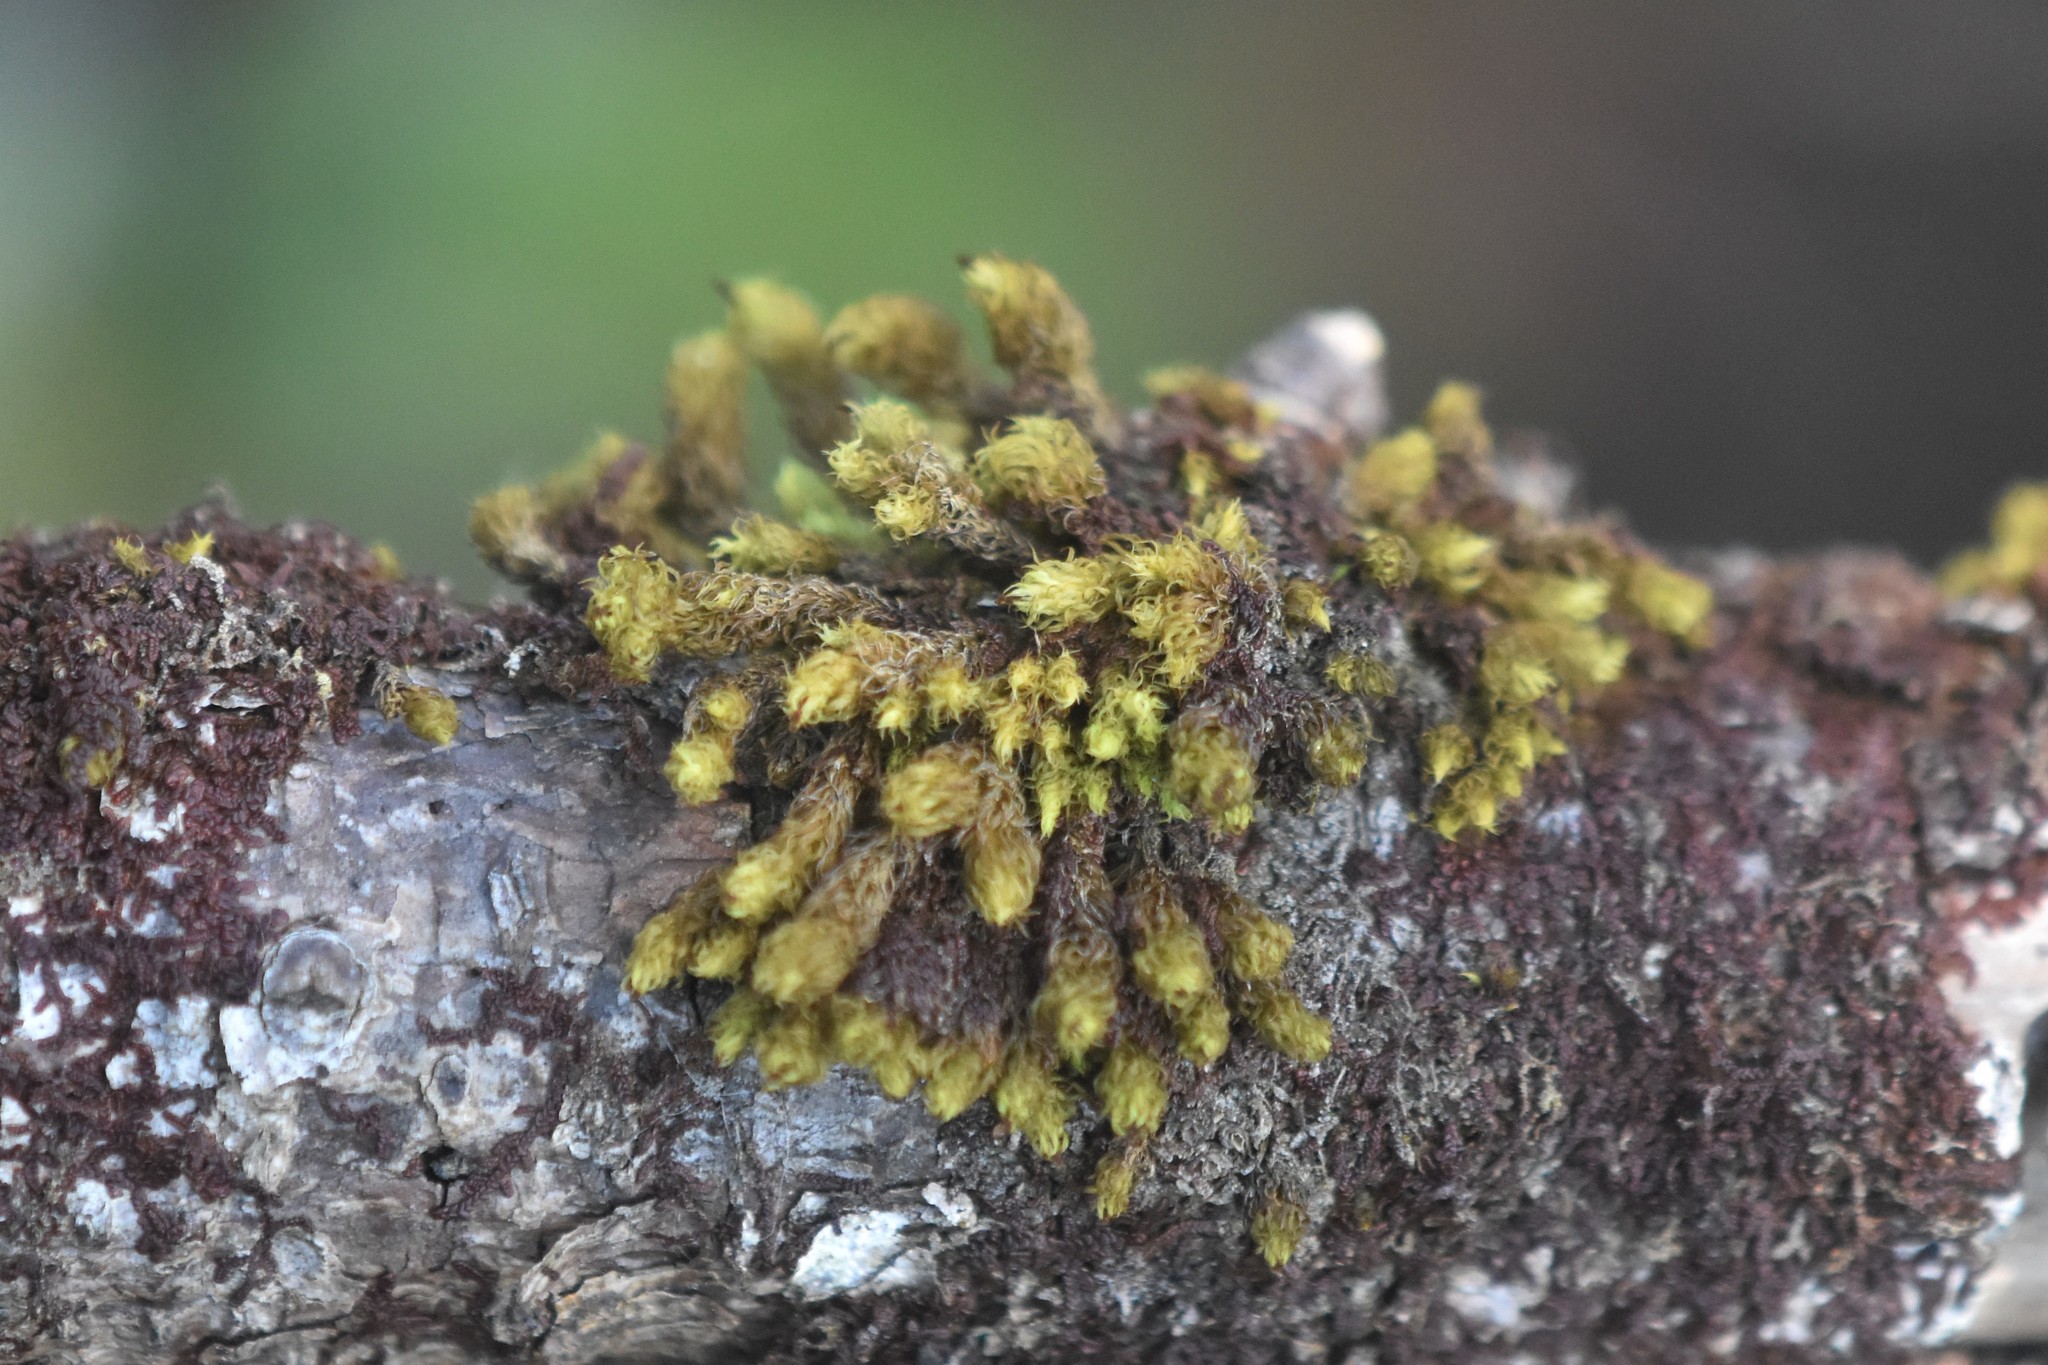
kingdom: Plantae
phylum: Bryophyta
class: Bryopsida
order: Orthotrichales
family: Orthotrichaceae
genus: Plenogemma
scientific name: Plenogemma phyllantha
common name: Frizzled pincushion
